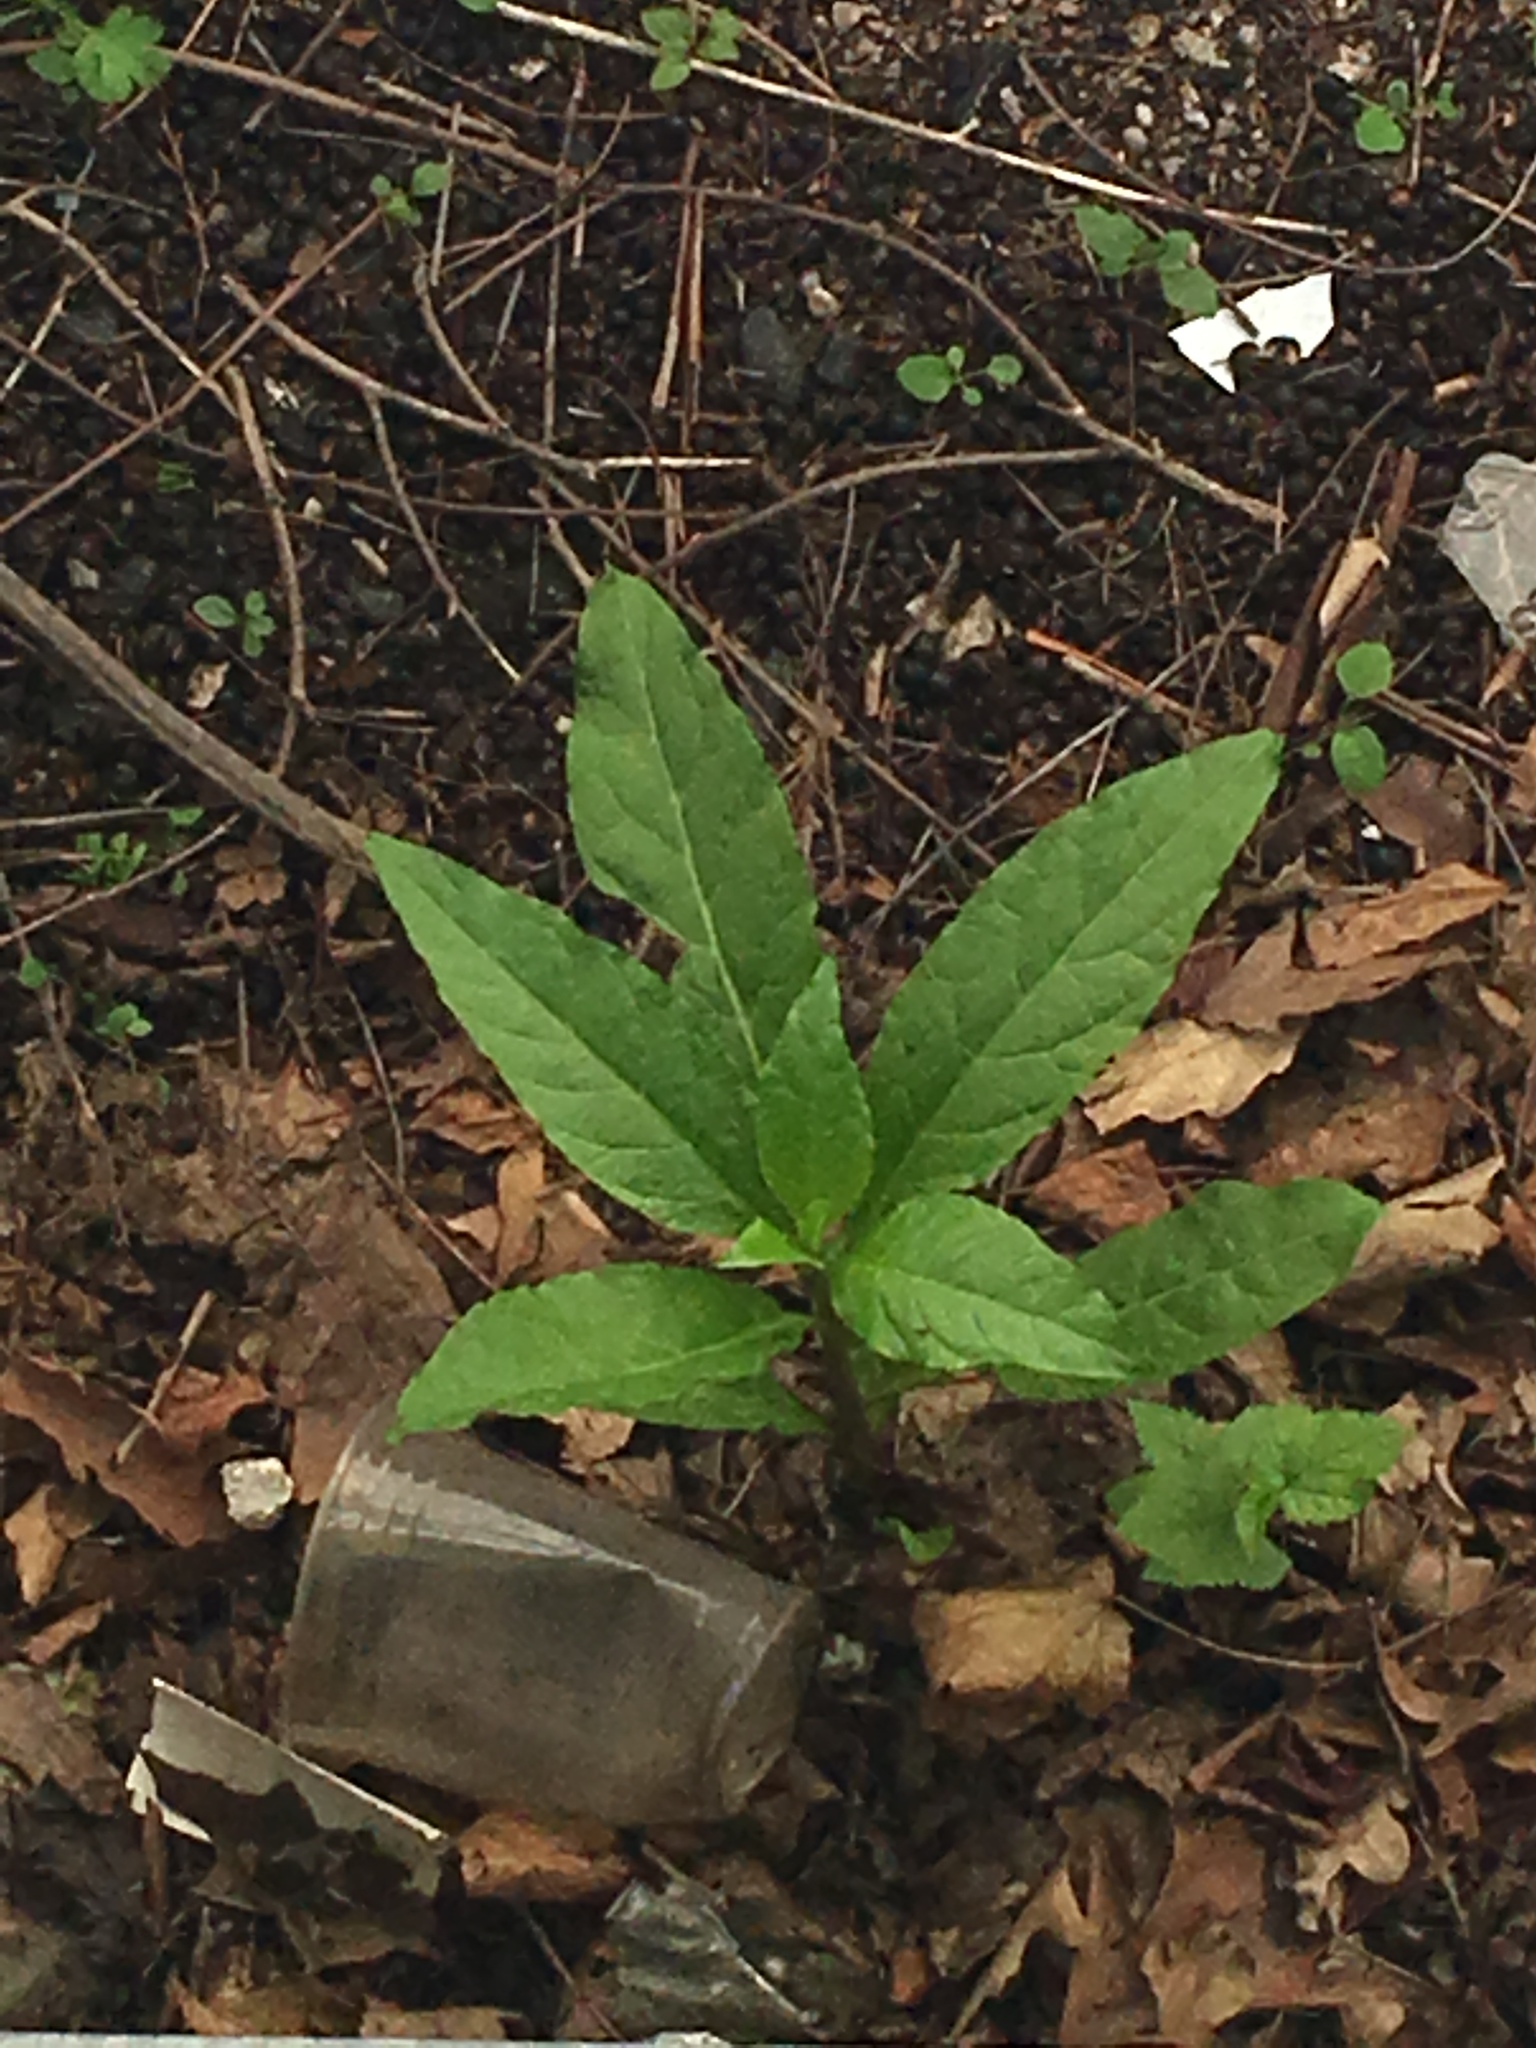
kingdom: Plantae
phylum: Tracheophyta
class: Magnoliopsida
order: Caryophyllales
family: Phytolaccaceae
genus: Phytolacca
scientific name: Phytolacca americana
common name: American pokeweed
